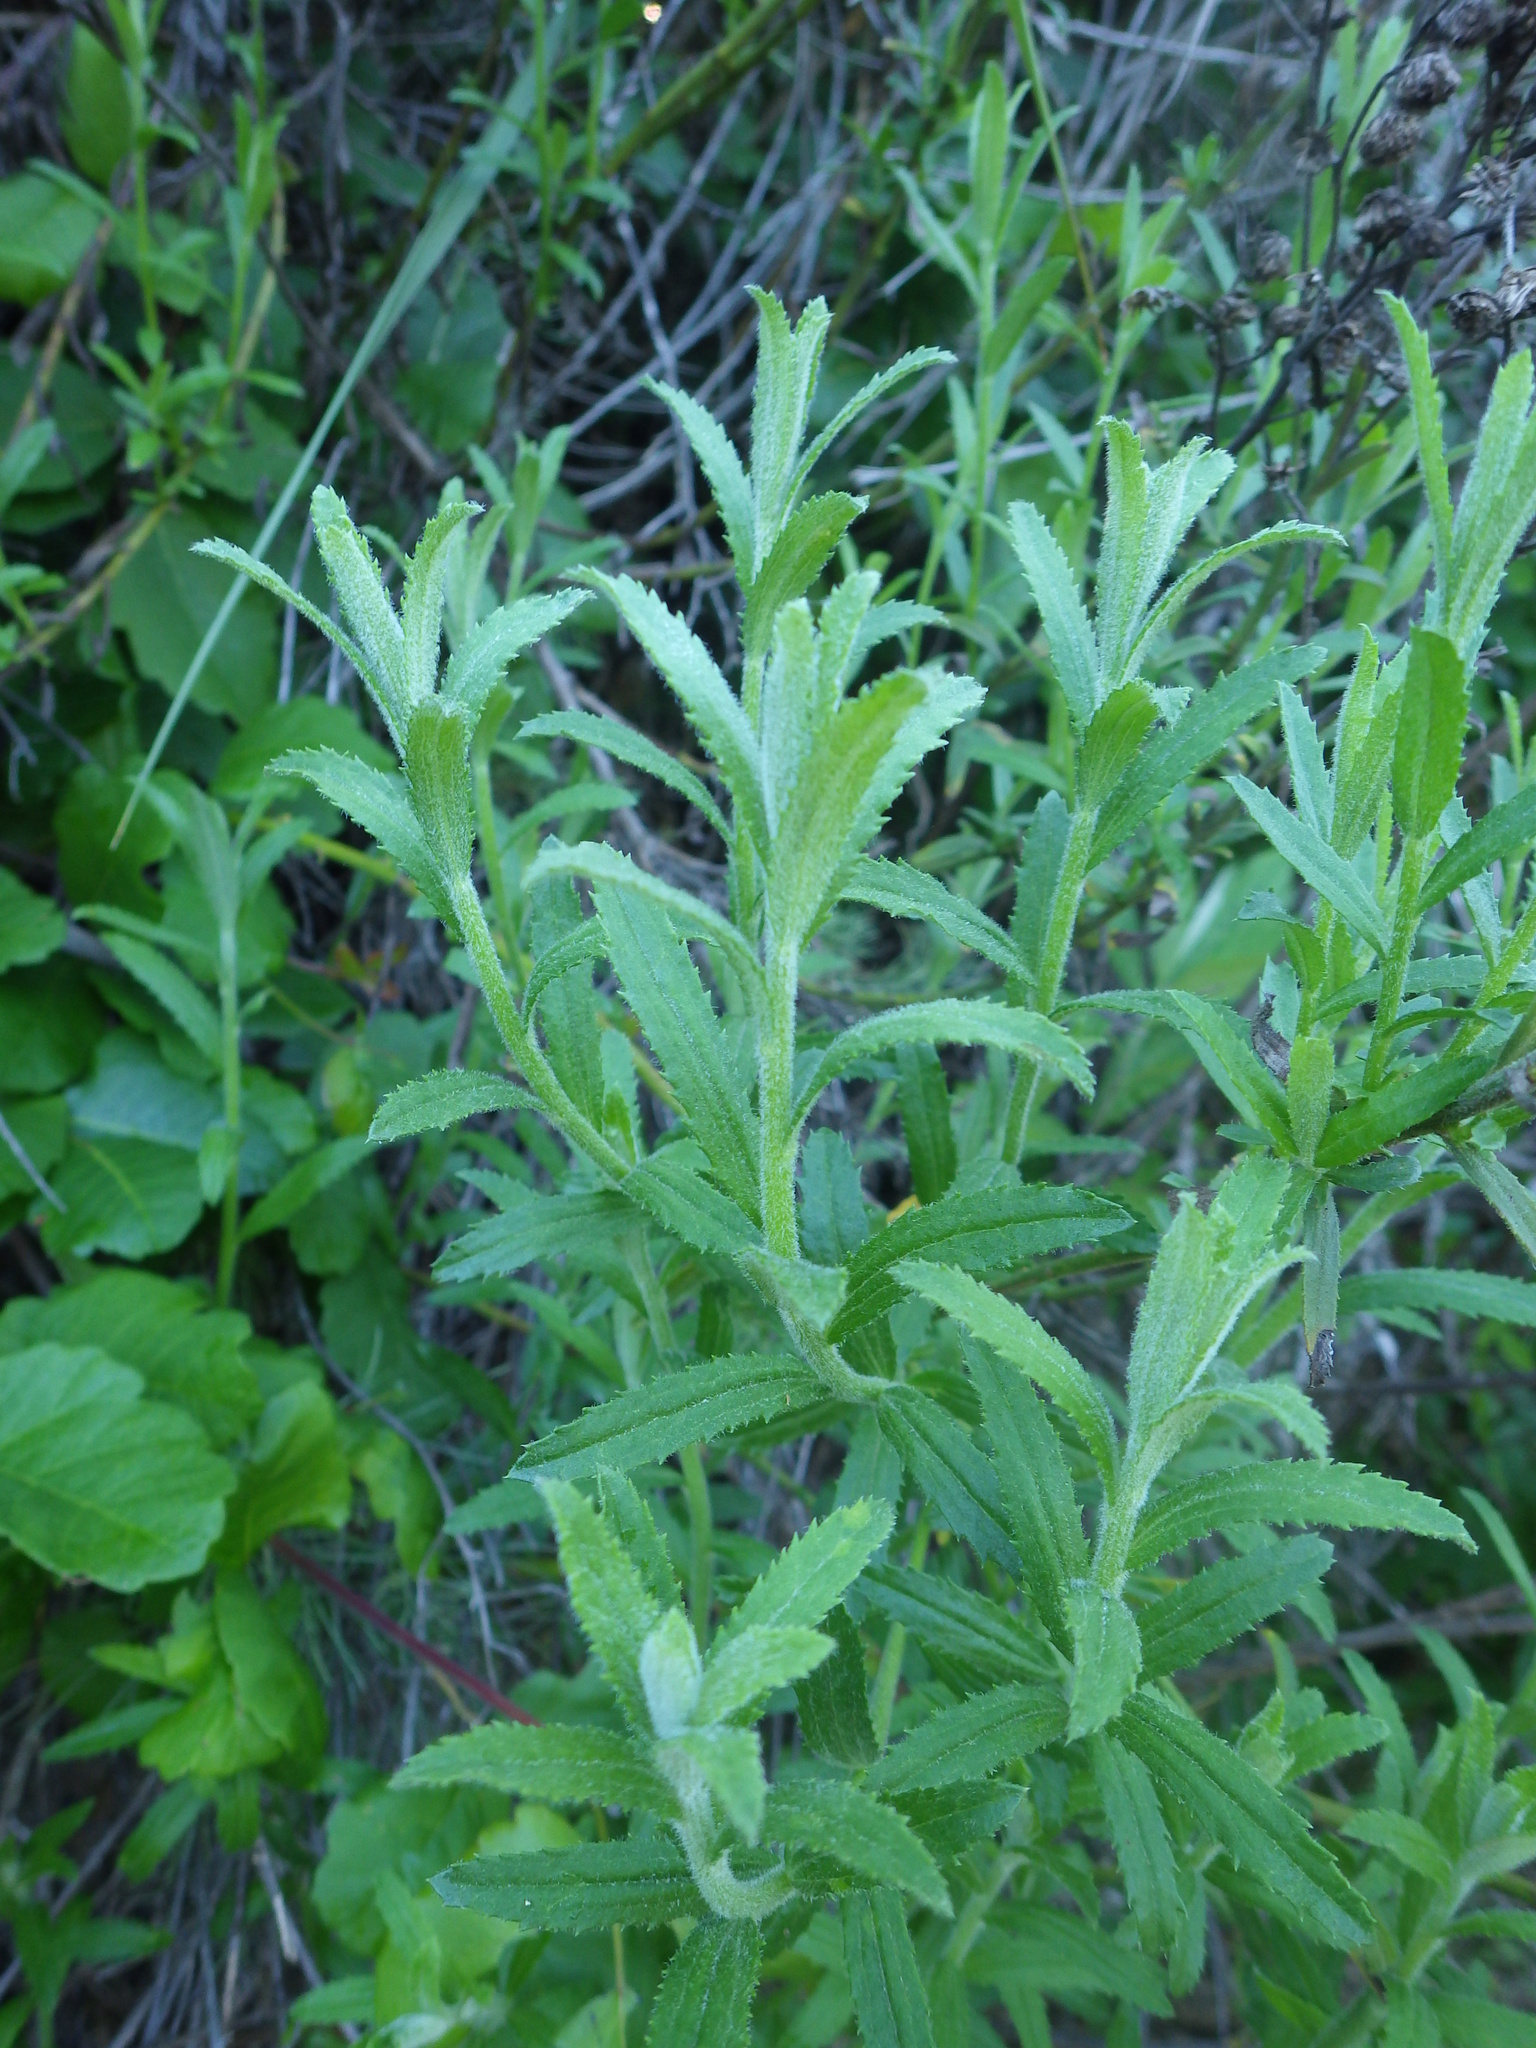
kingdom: Plantae
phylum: Tracheophyta
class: Magnoliopsida
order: Asterales
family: Asteraceae
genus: Baccharis
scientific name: Baccharis plummerae
